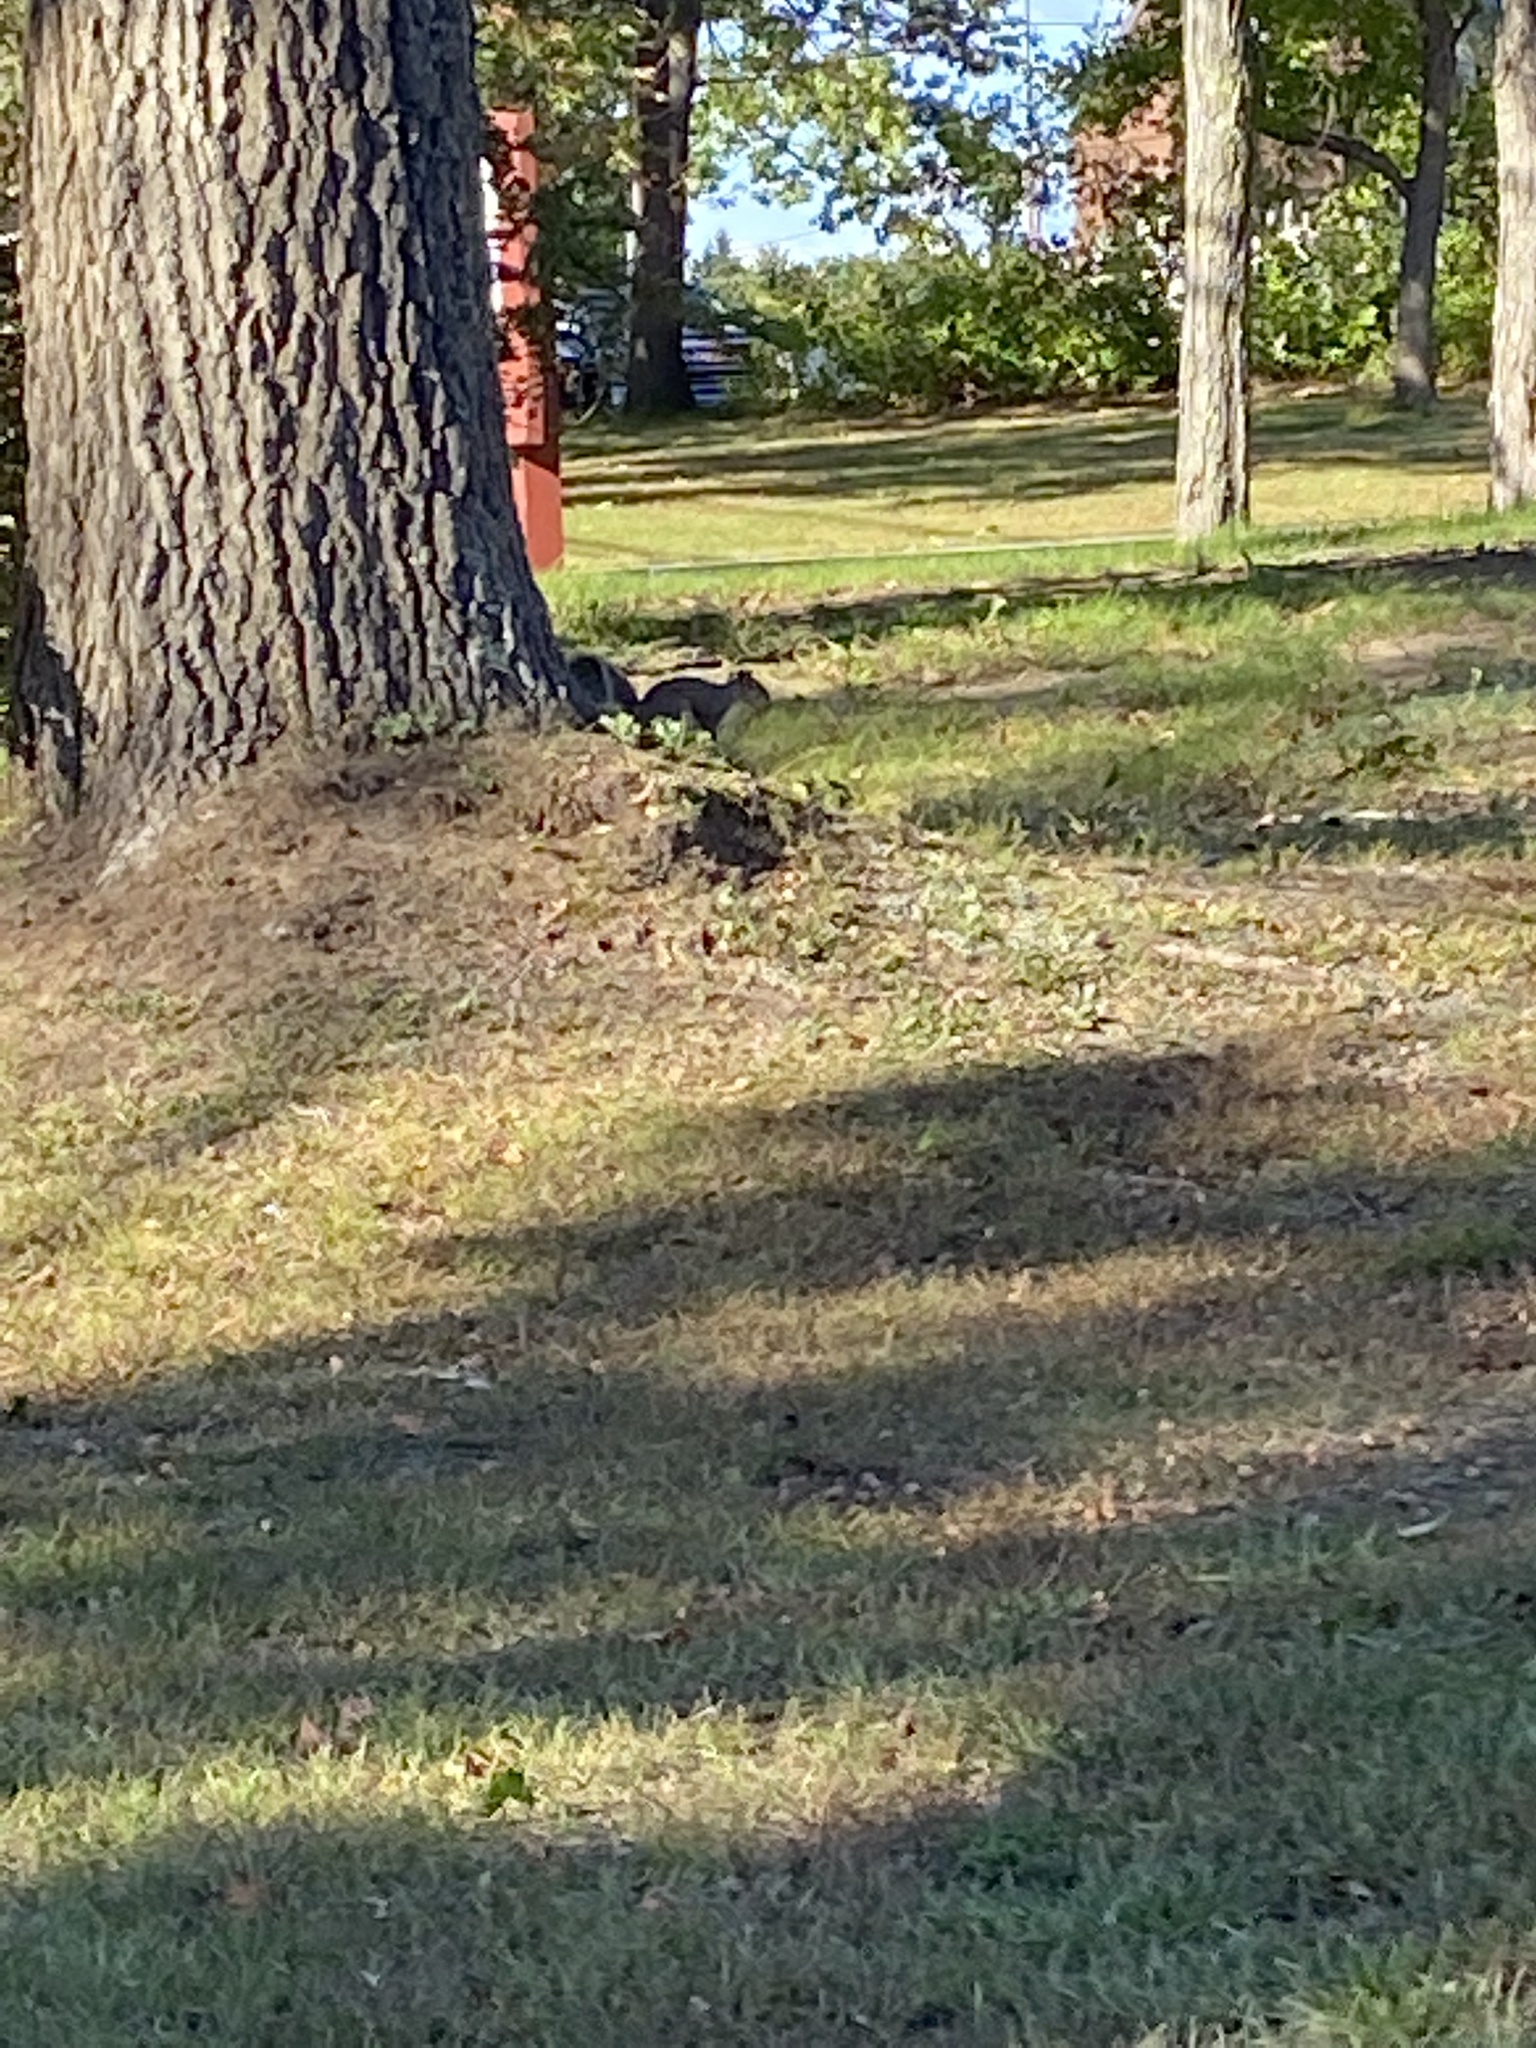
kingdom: Animalia
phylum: Chordata
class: Mammalia
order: Rodentia
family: Sciuridae
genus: Sciurus
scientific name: Sciurus carolinensis
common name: Eastern gray squirrel
